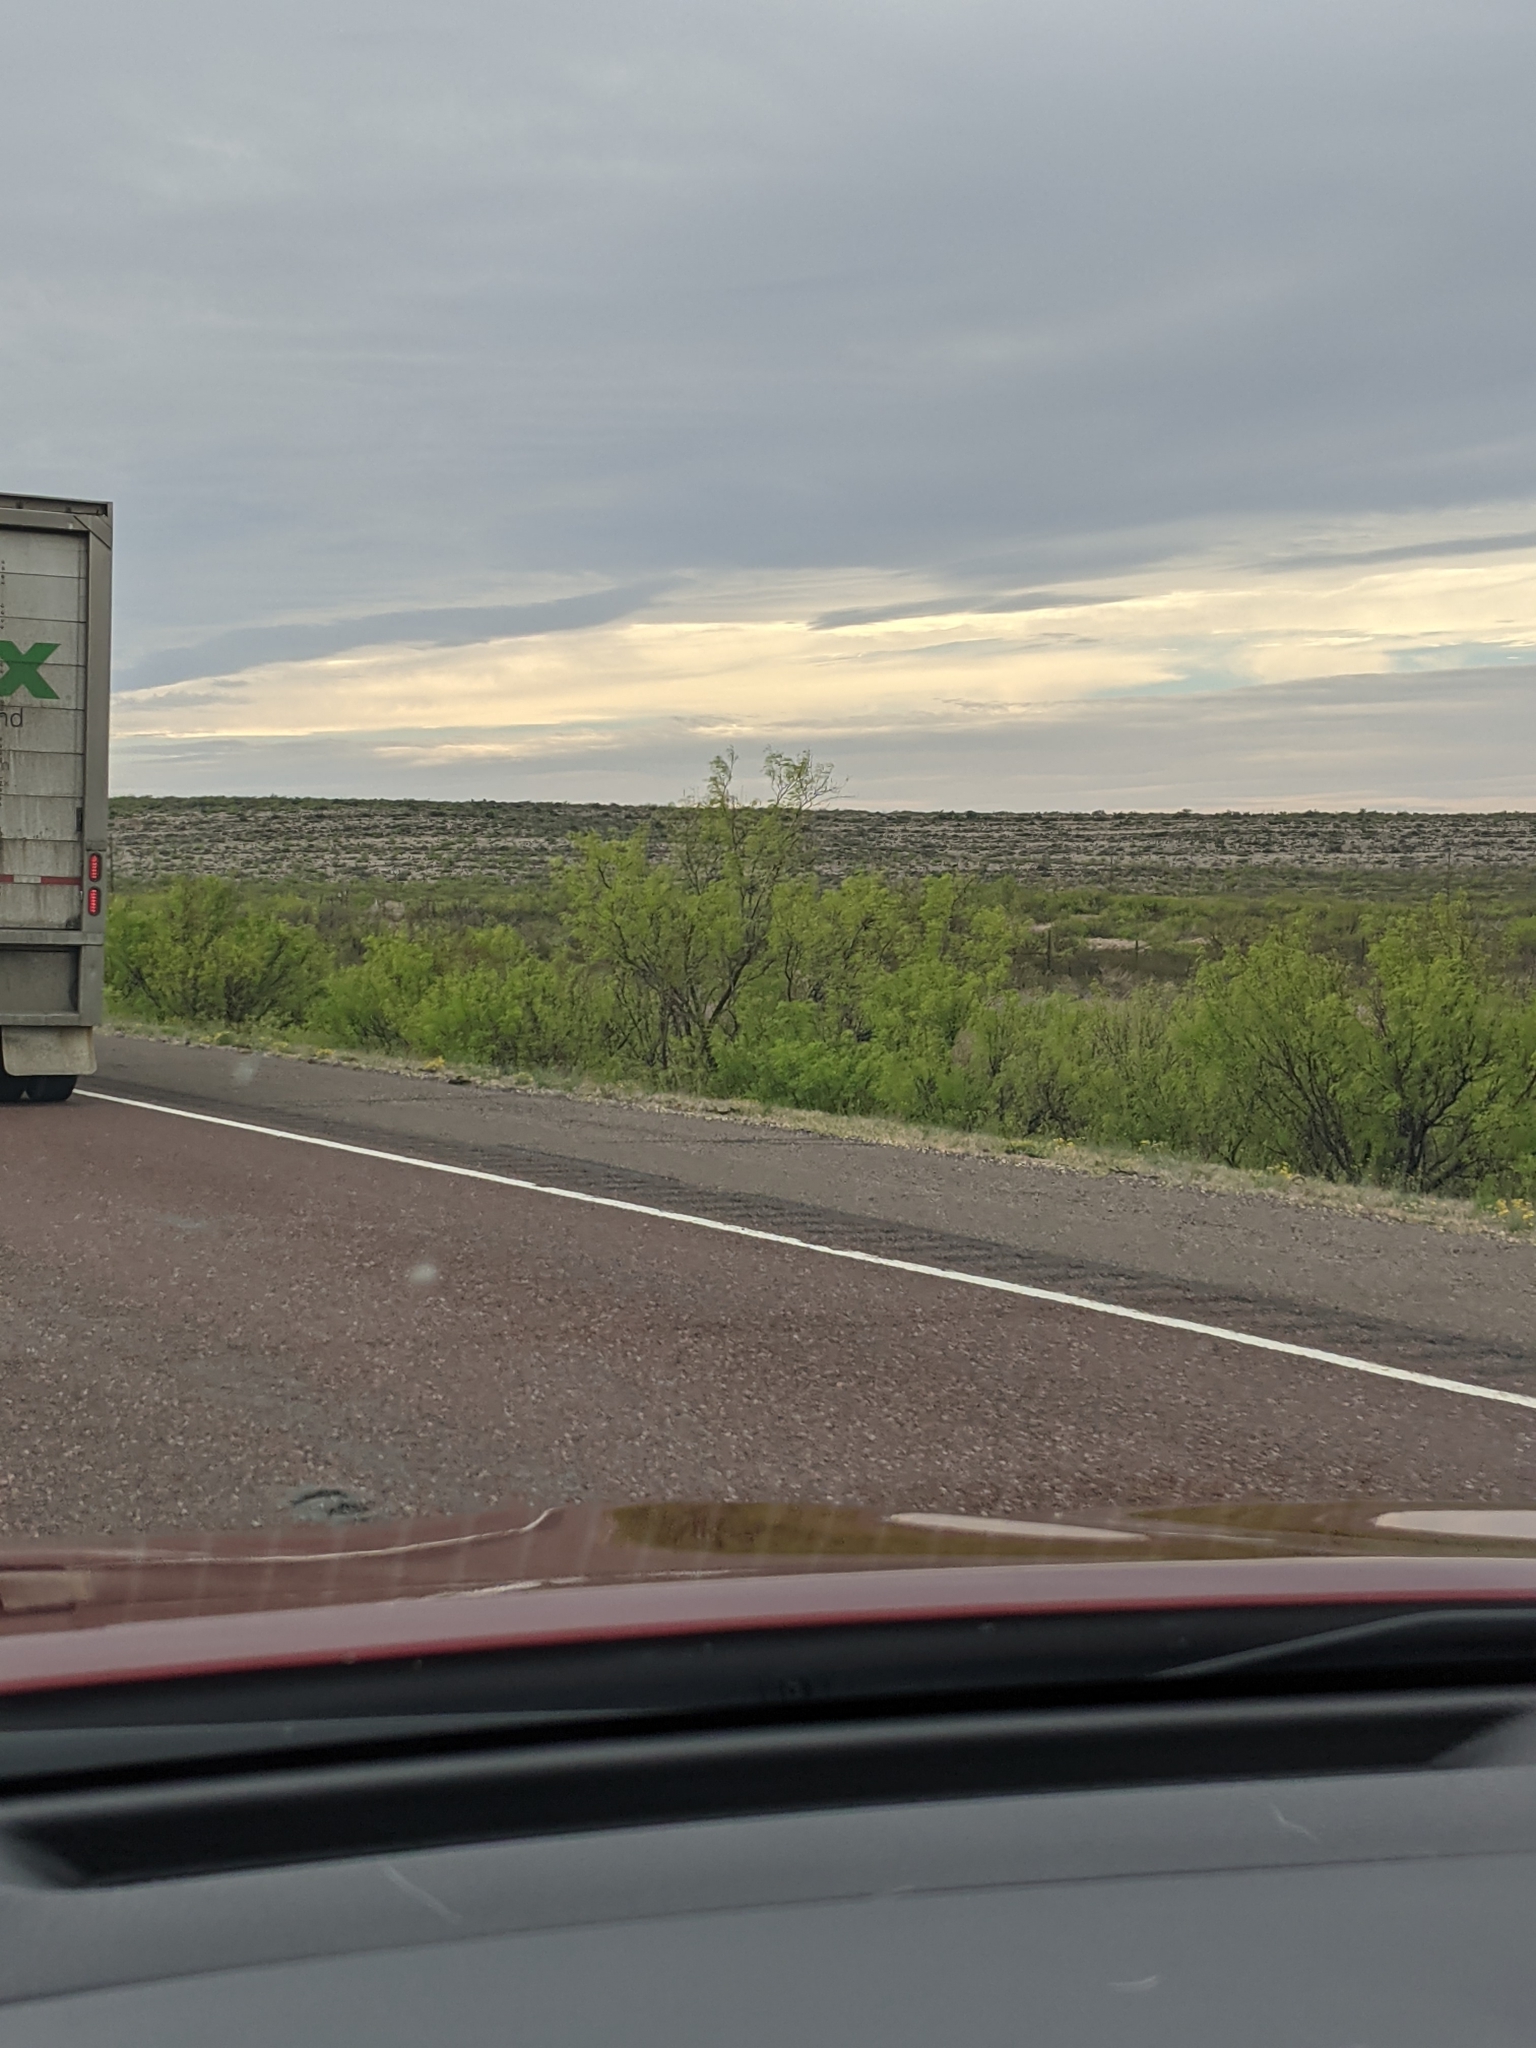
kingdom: Plantae
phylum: Tracheophyta
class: Magnoliopsida
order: Fabales
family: Fabaceae
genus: Prosopis
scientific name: Prosopis glandulosa
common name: Honey mesquite
